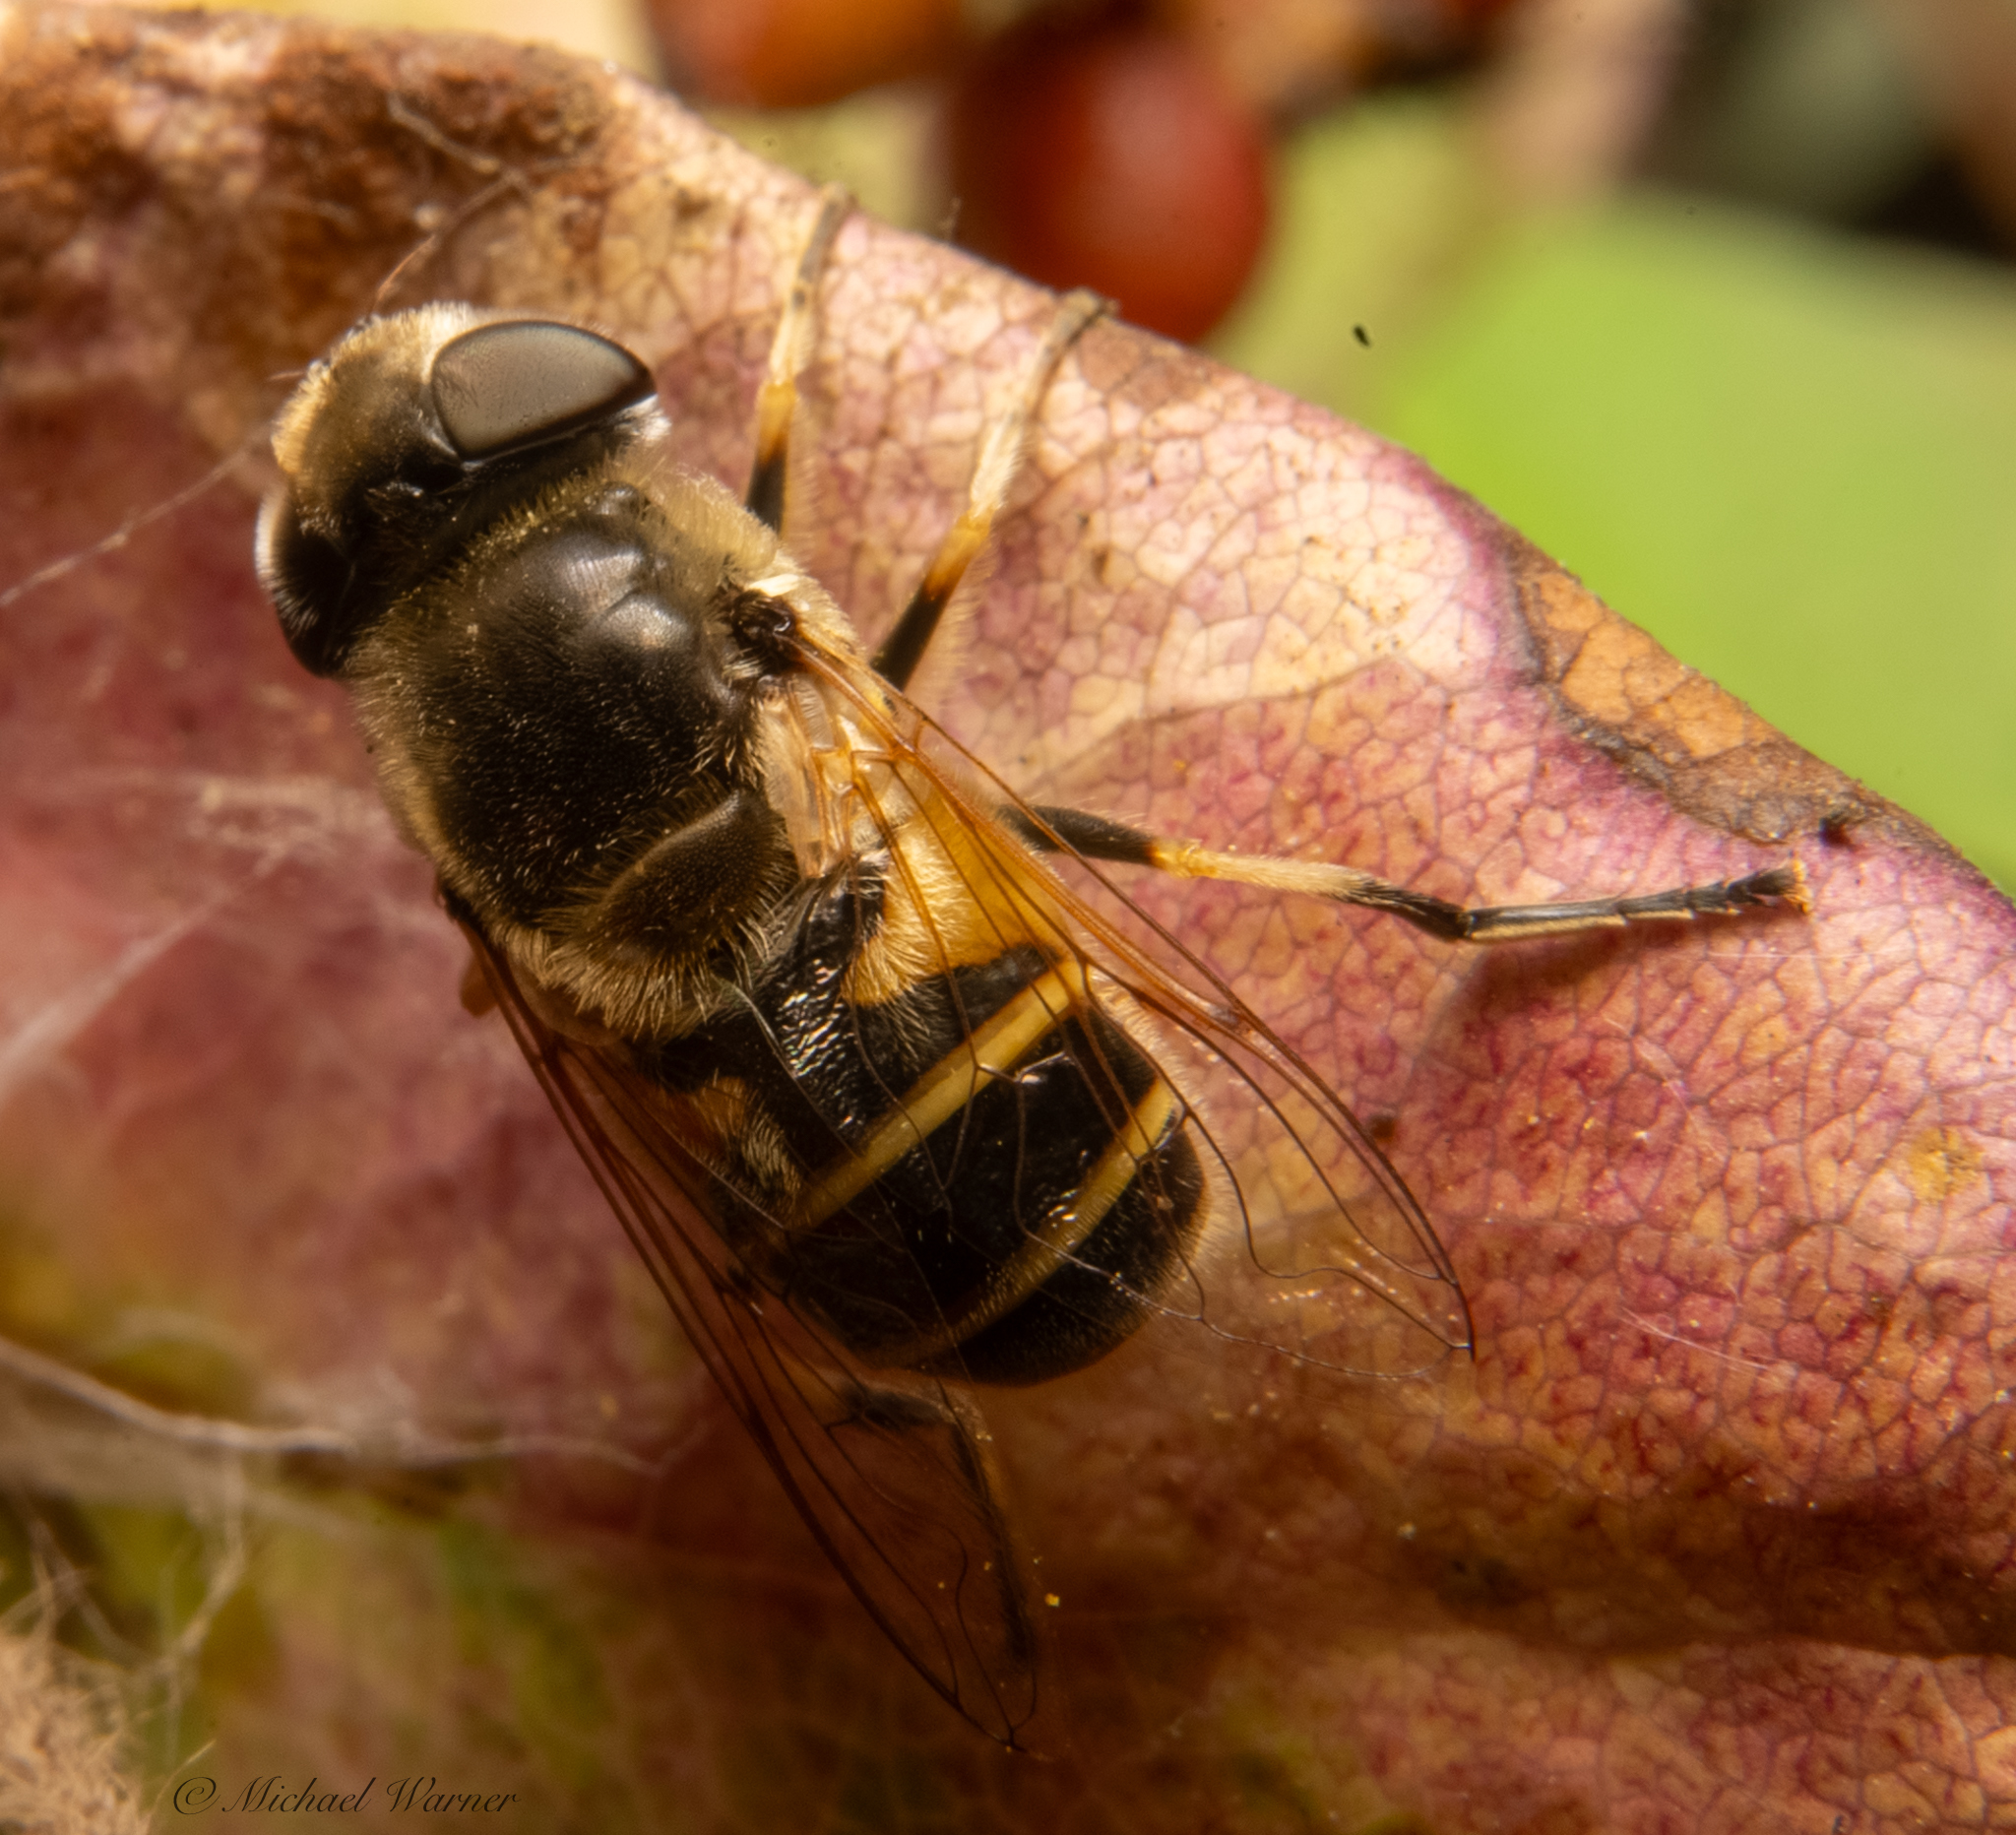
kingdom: Animalia
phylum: Arthropoda
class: Insecta
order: Diptera
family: Syrphidae
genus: Eristalis
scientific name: Eristalis hirta
